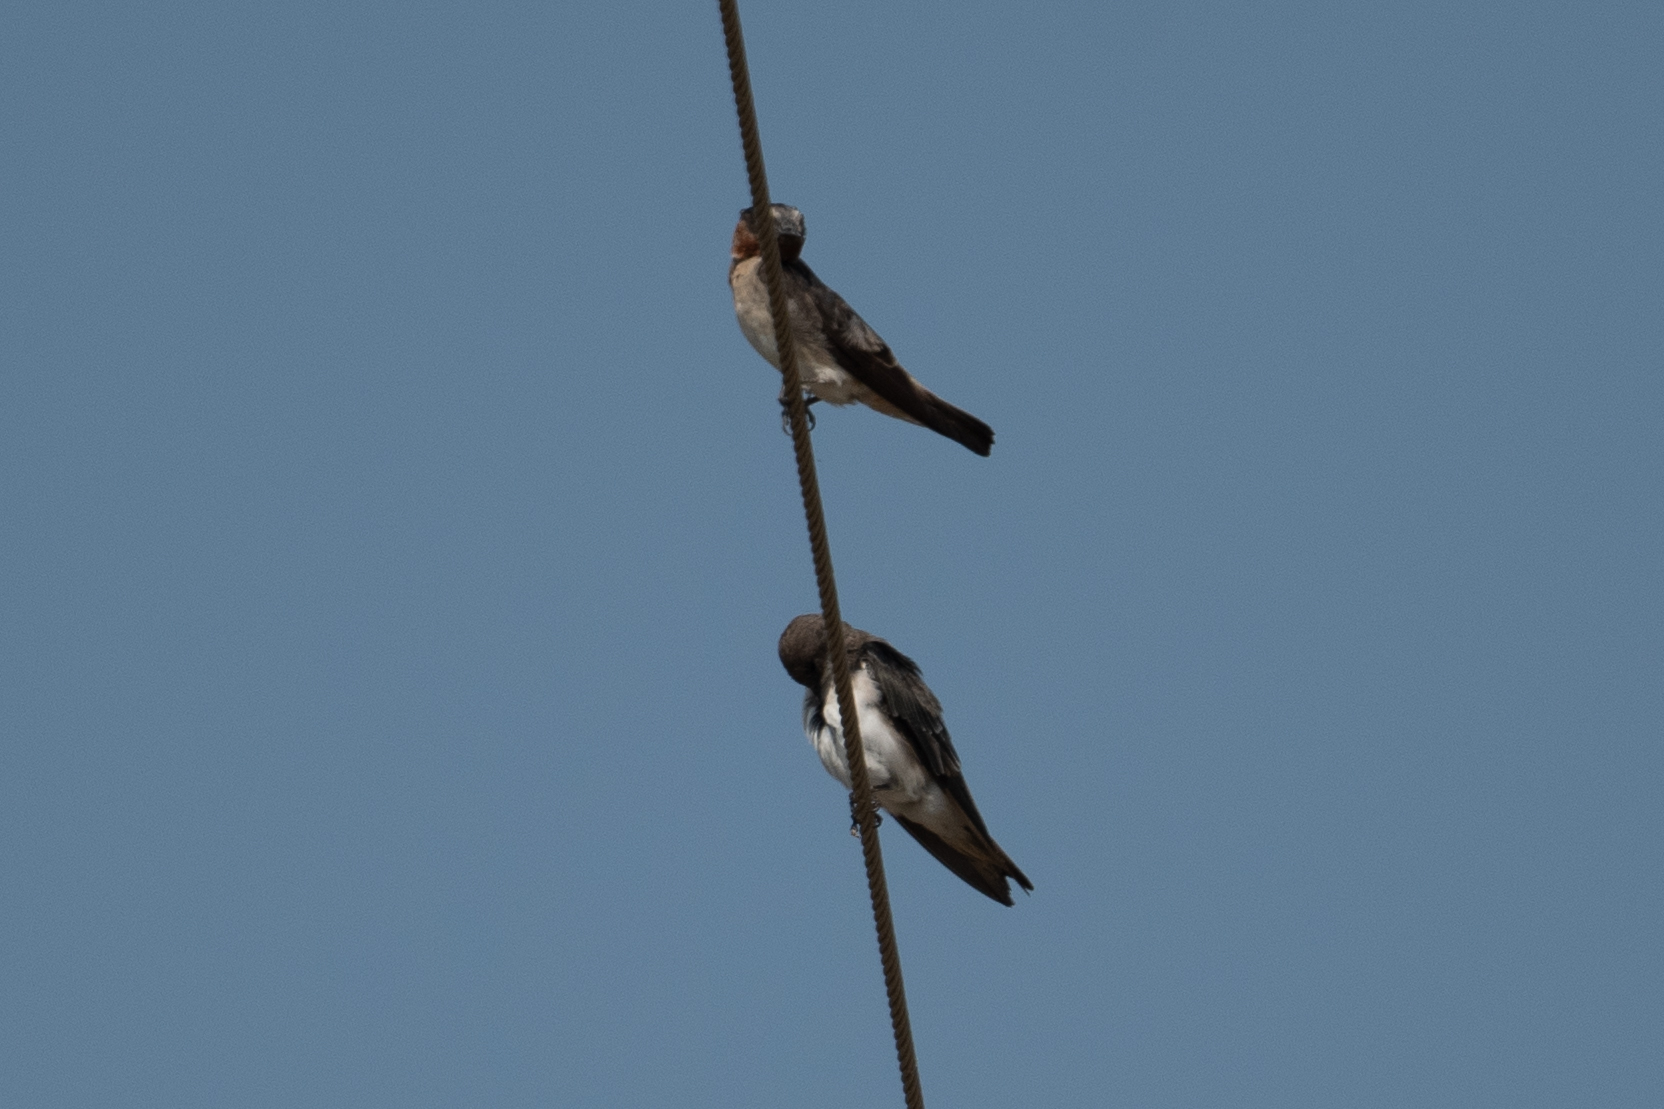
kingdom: Animalia
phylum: Chordata
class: Aves
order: Passeriformes
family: Hirundinidae
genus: Petrochelidon
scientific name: Petrochelidon pyrrhonota
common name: American cliff swallow
